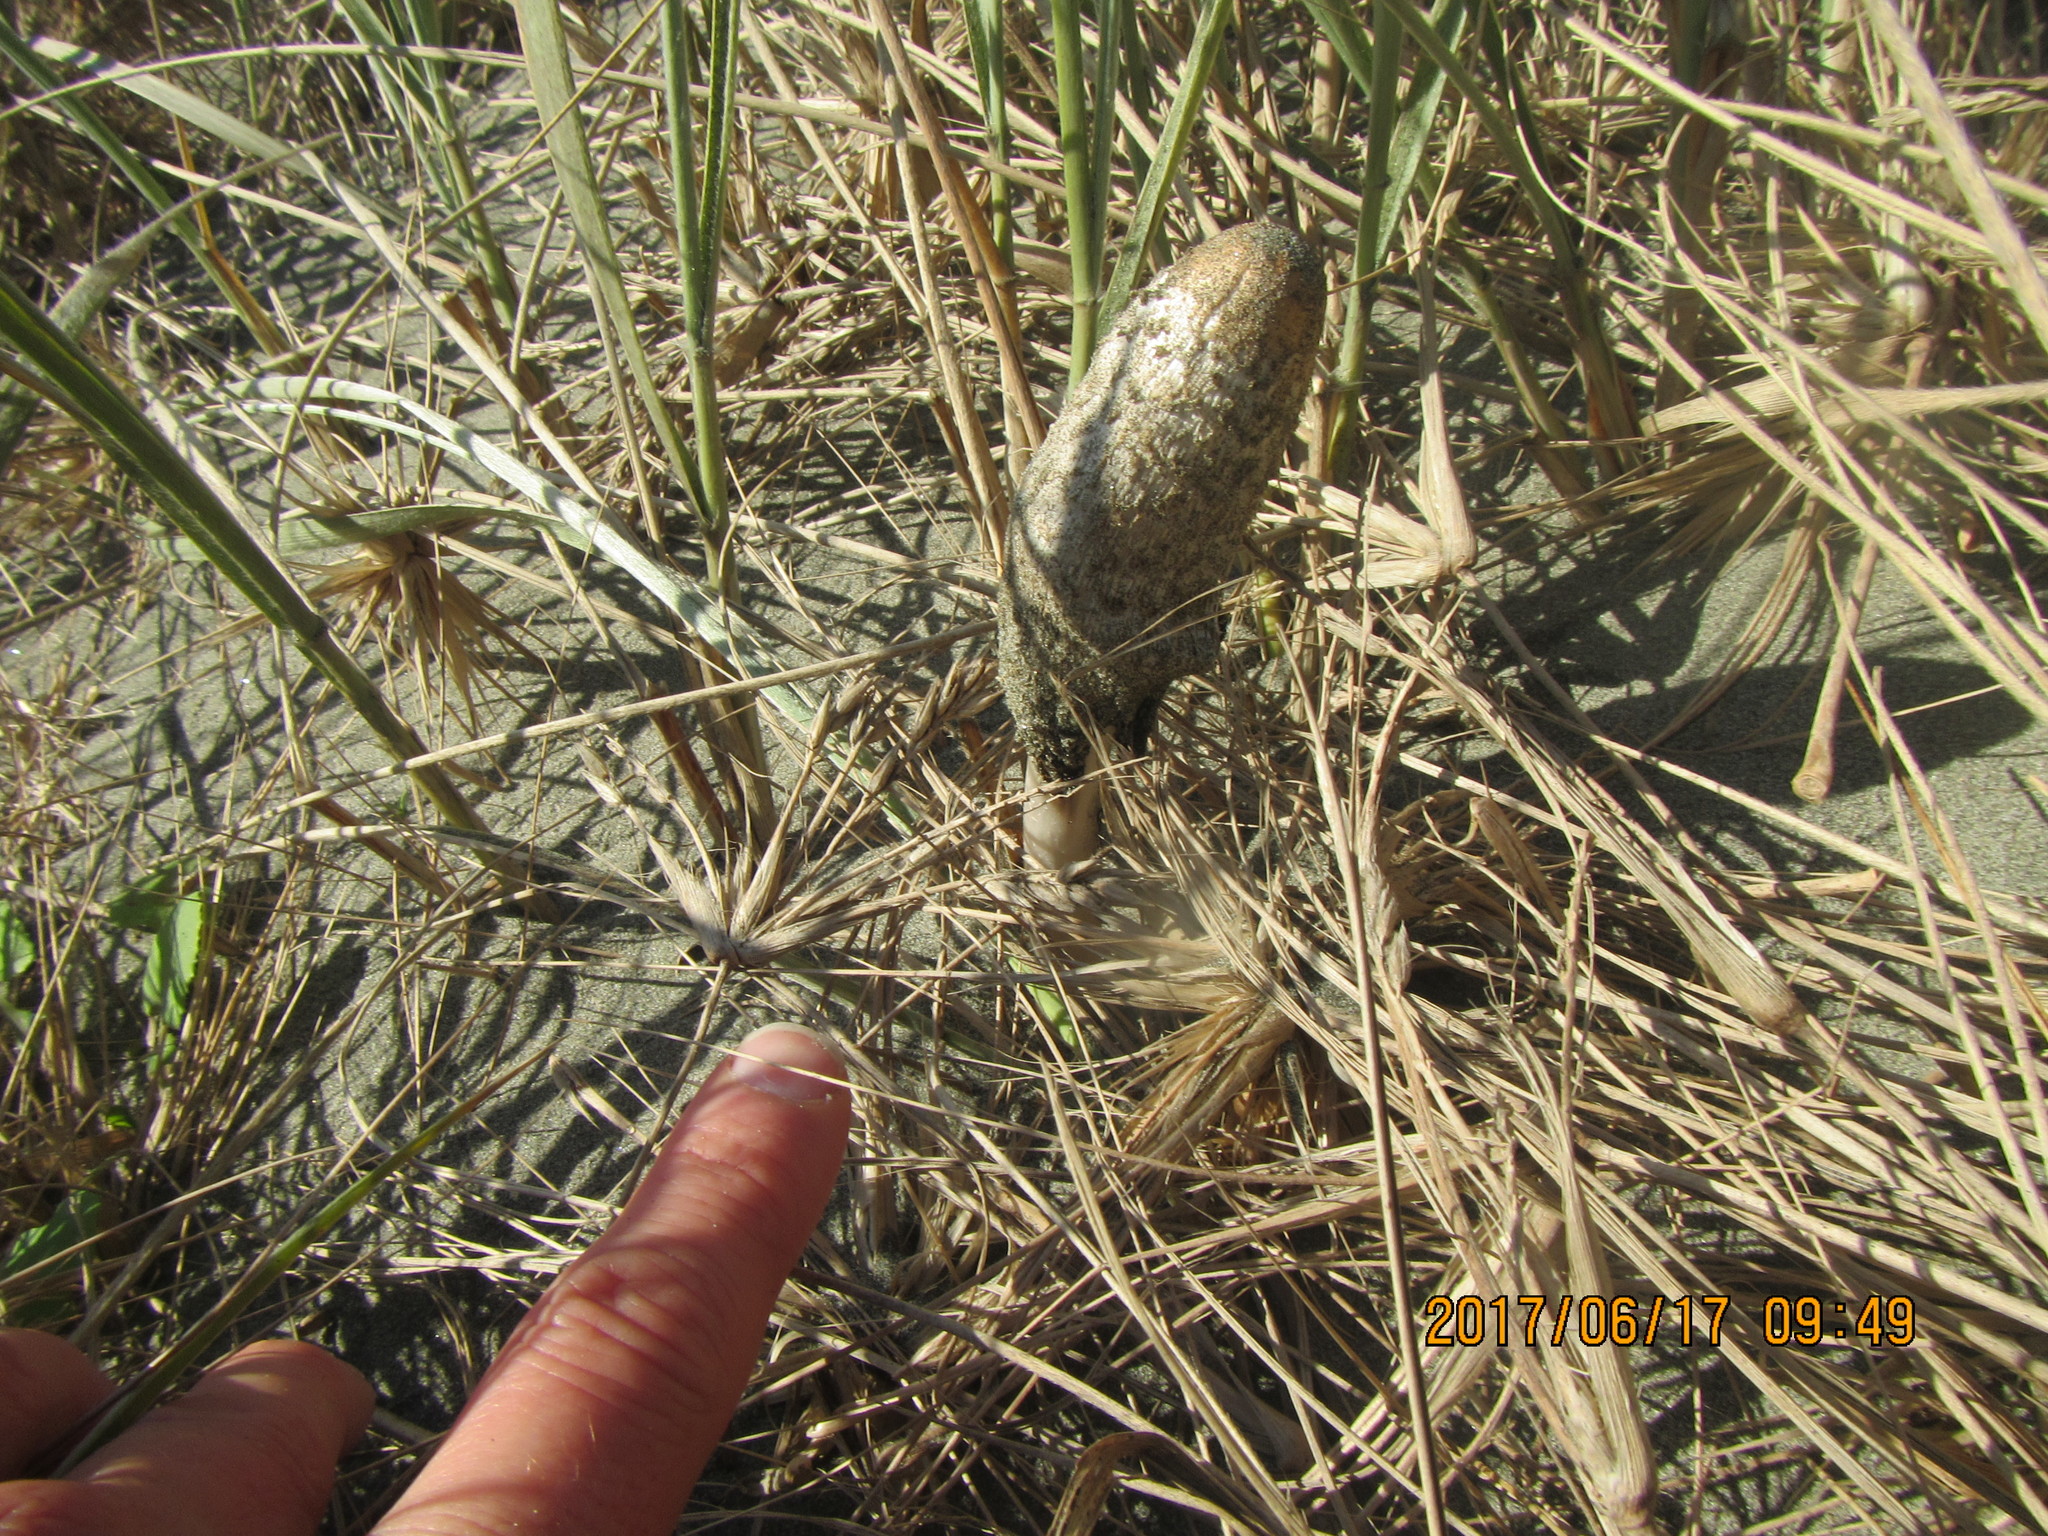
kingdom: Fungi
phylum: Basidiomycota
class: Agaricomycetes
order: Agaricales
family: Agaricaceae
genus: Coprinus
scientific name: Coprinus comatus
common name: Lawyer's wig
